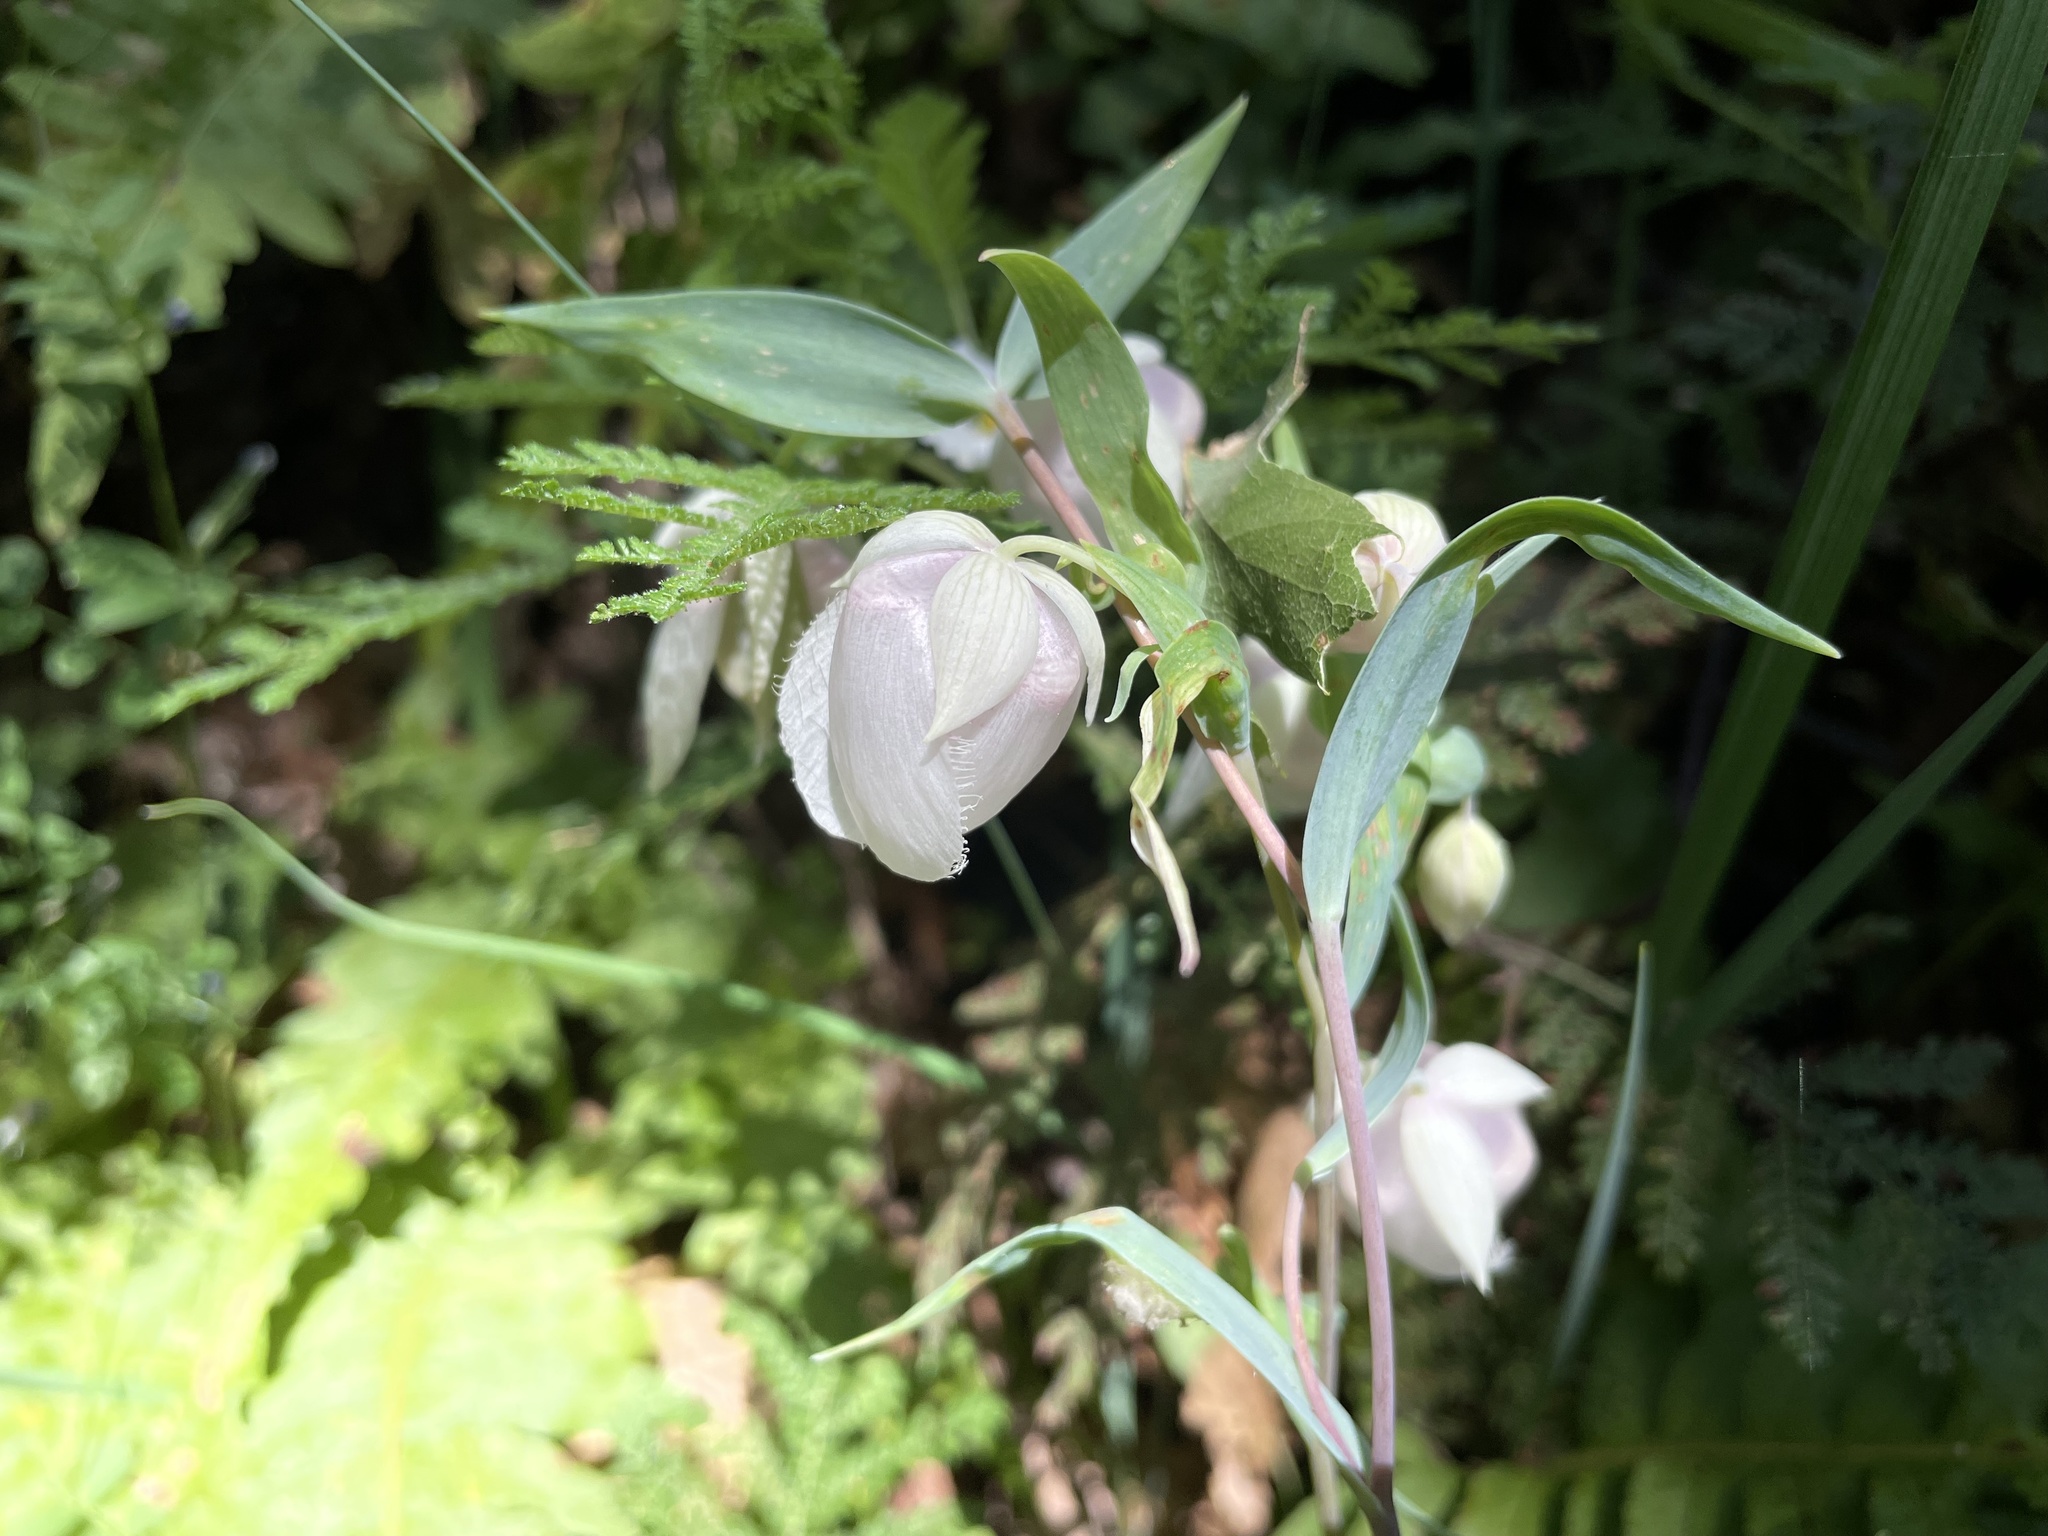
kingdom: Plantae
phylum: Tracheophyta
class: Liliopsida
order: Liliales
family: Liliaceae
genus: Calochortus
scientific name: Calochortus albus
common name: Fairy-lantern
